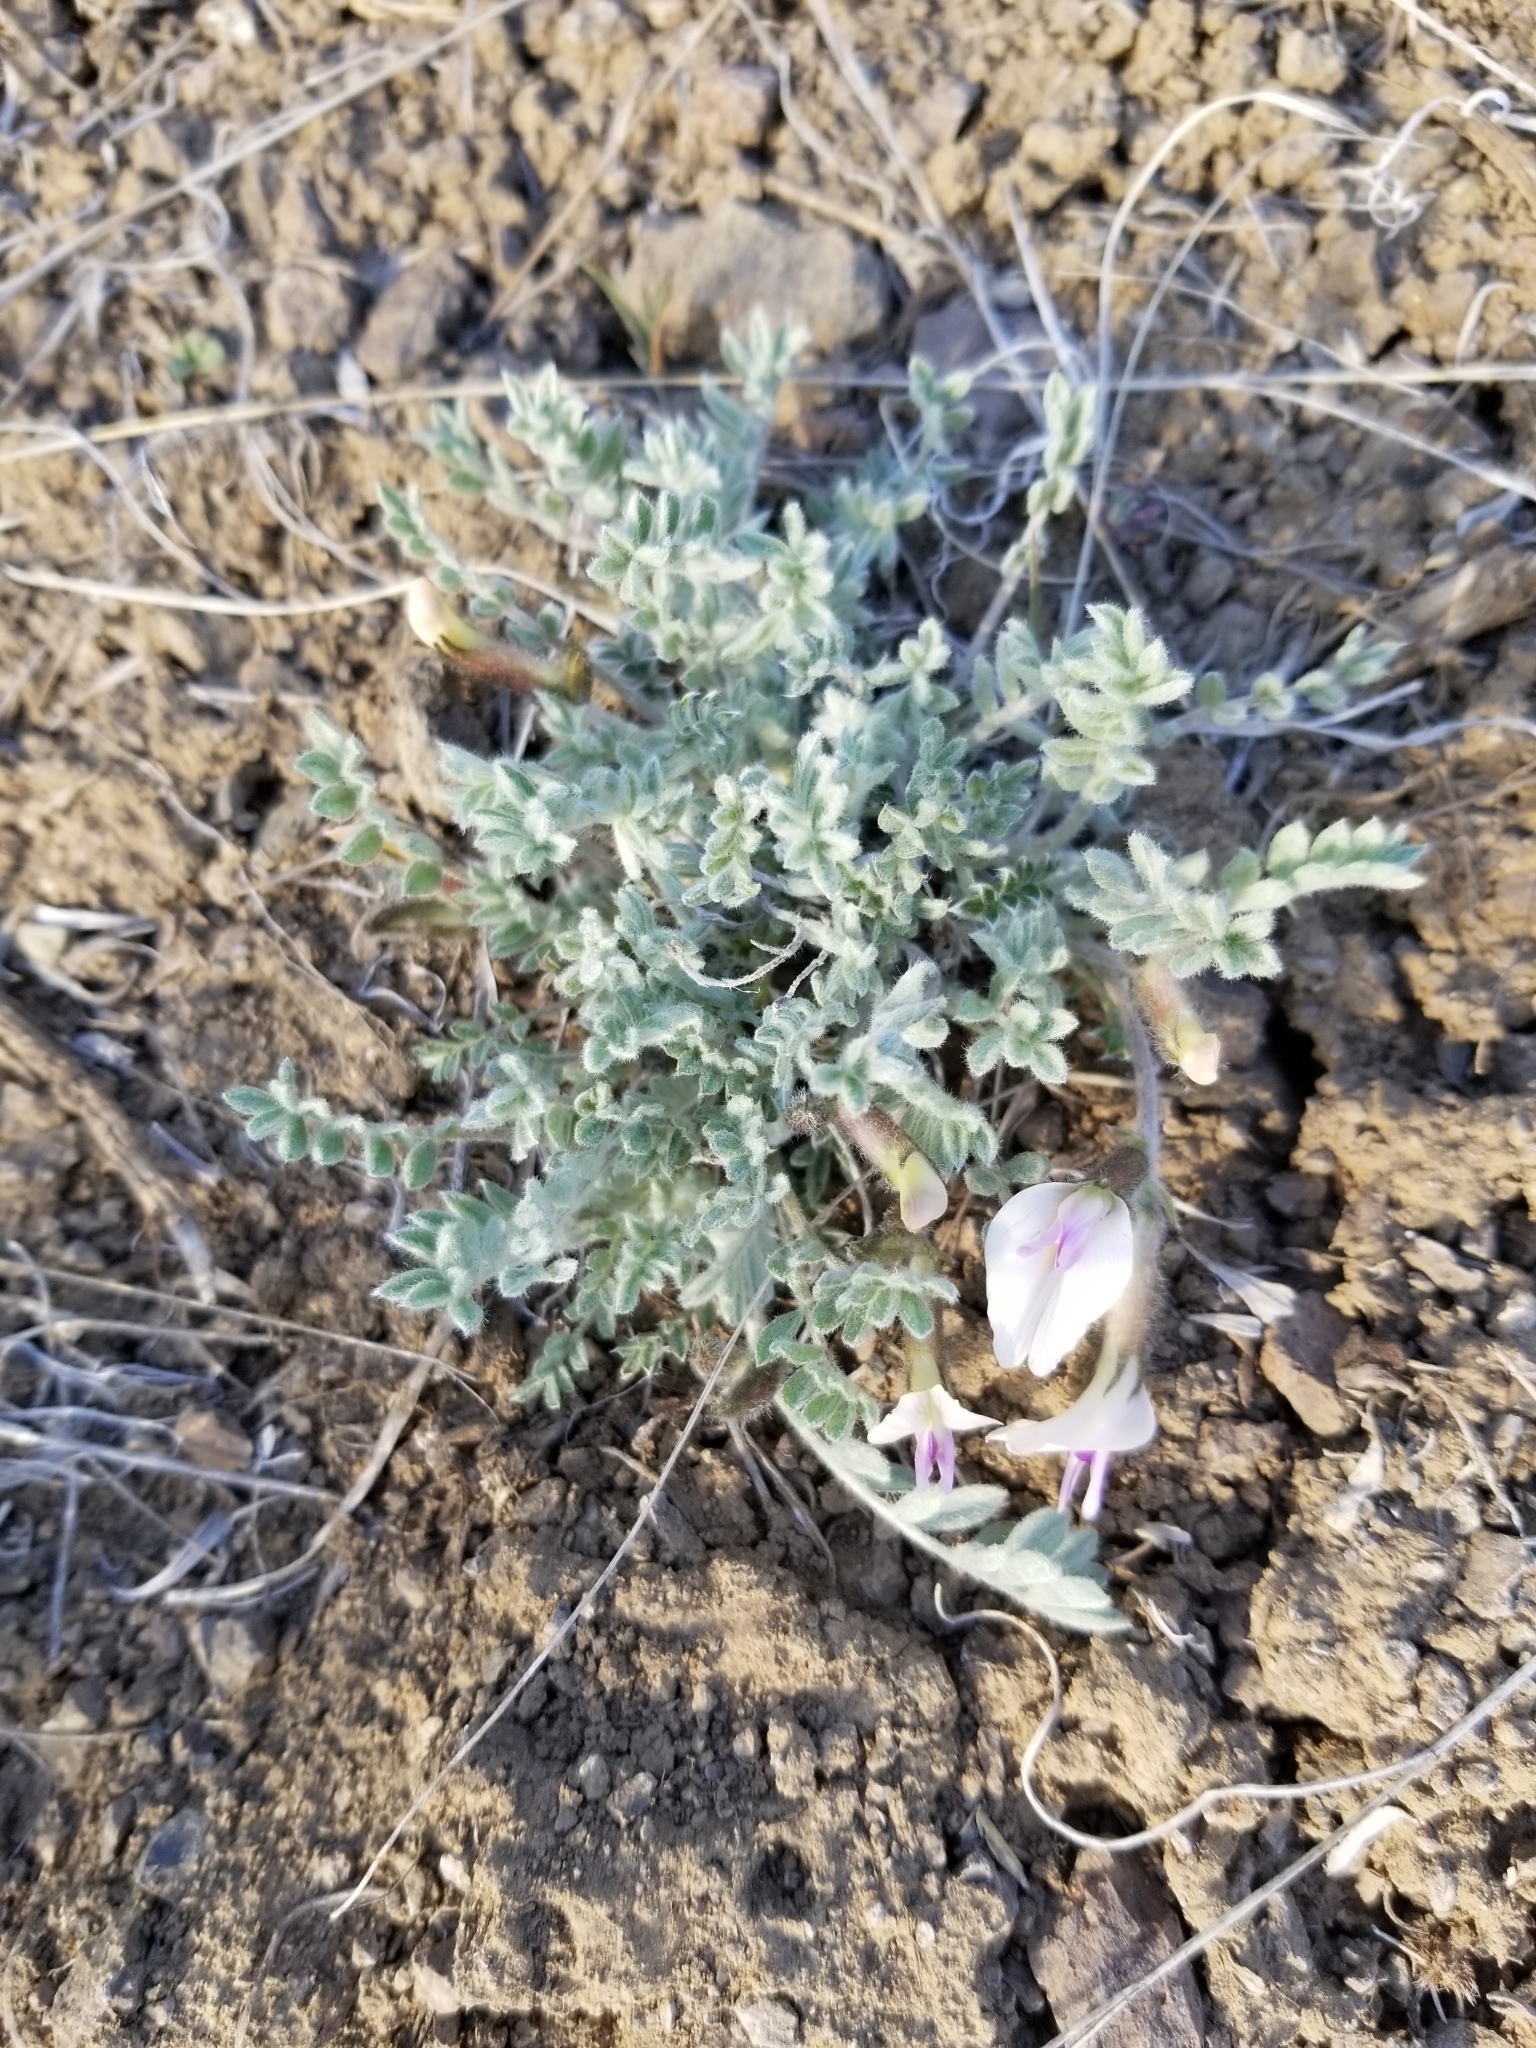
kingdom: Plantae
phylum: Tracheophyta
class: Magnoliopsida
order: Fabales
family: Fabaceae
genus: Astragalus
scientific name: Astragalus purshii
